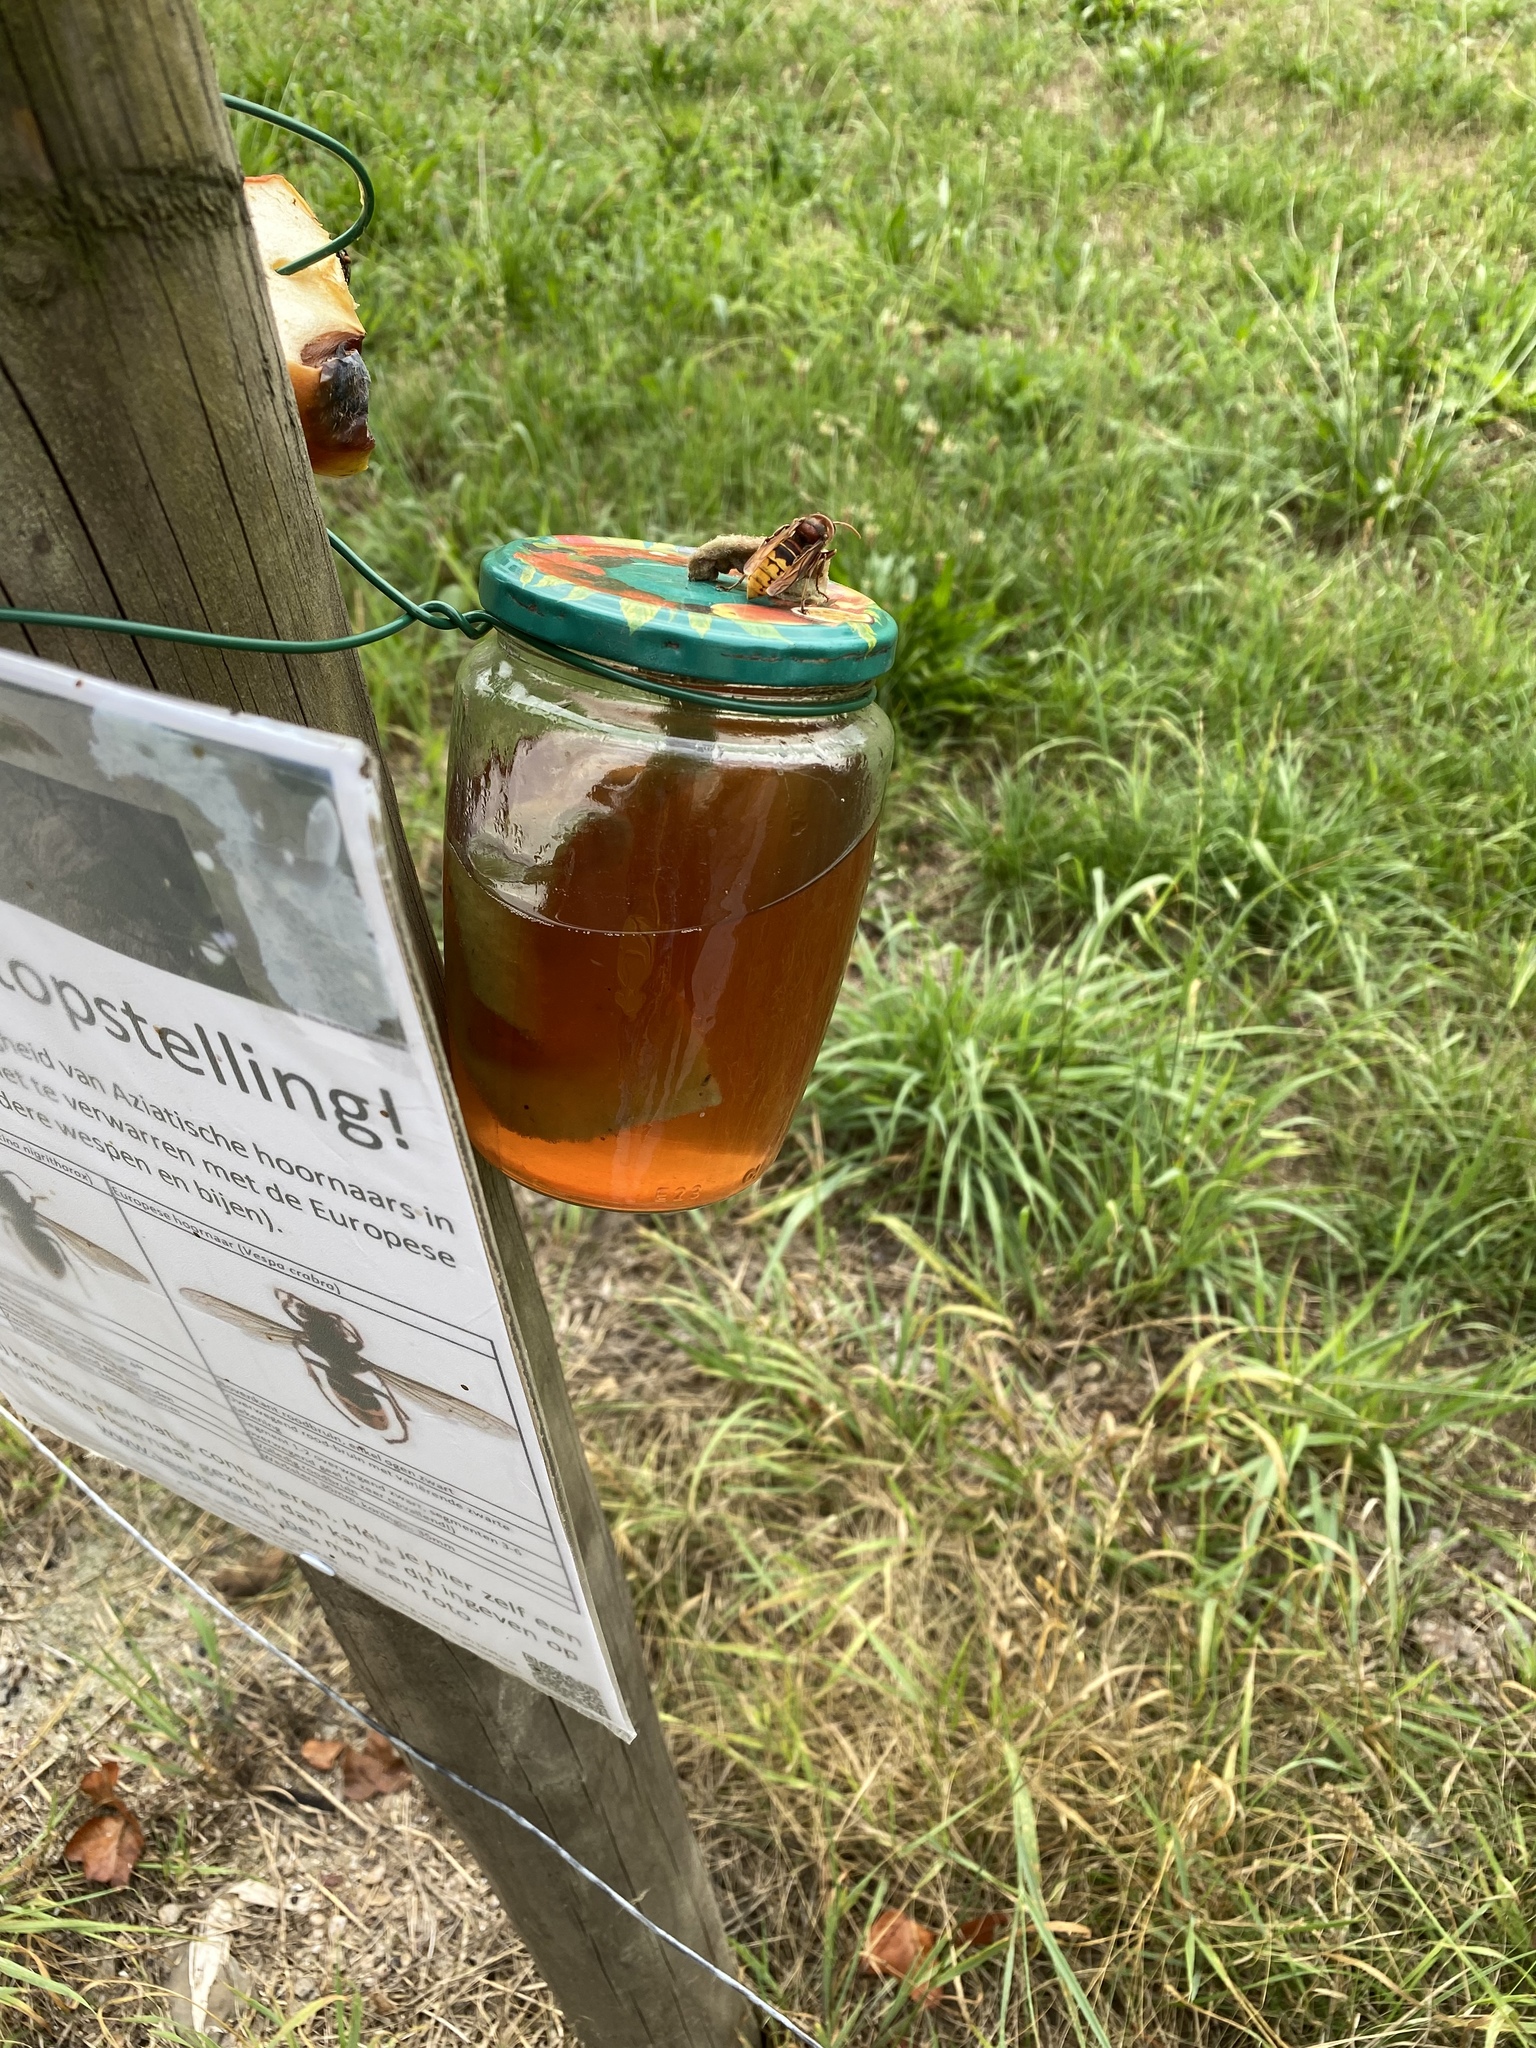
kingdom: Animalia
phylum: Arthropoda
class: Insecta
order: Hymenoptera
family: Vespidae
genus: Vespa
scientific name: Vespa crabro
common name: Hornet
